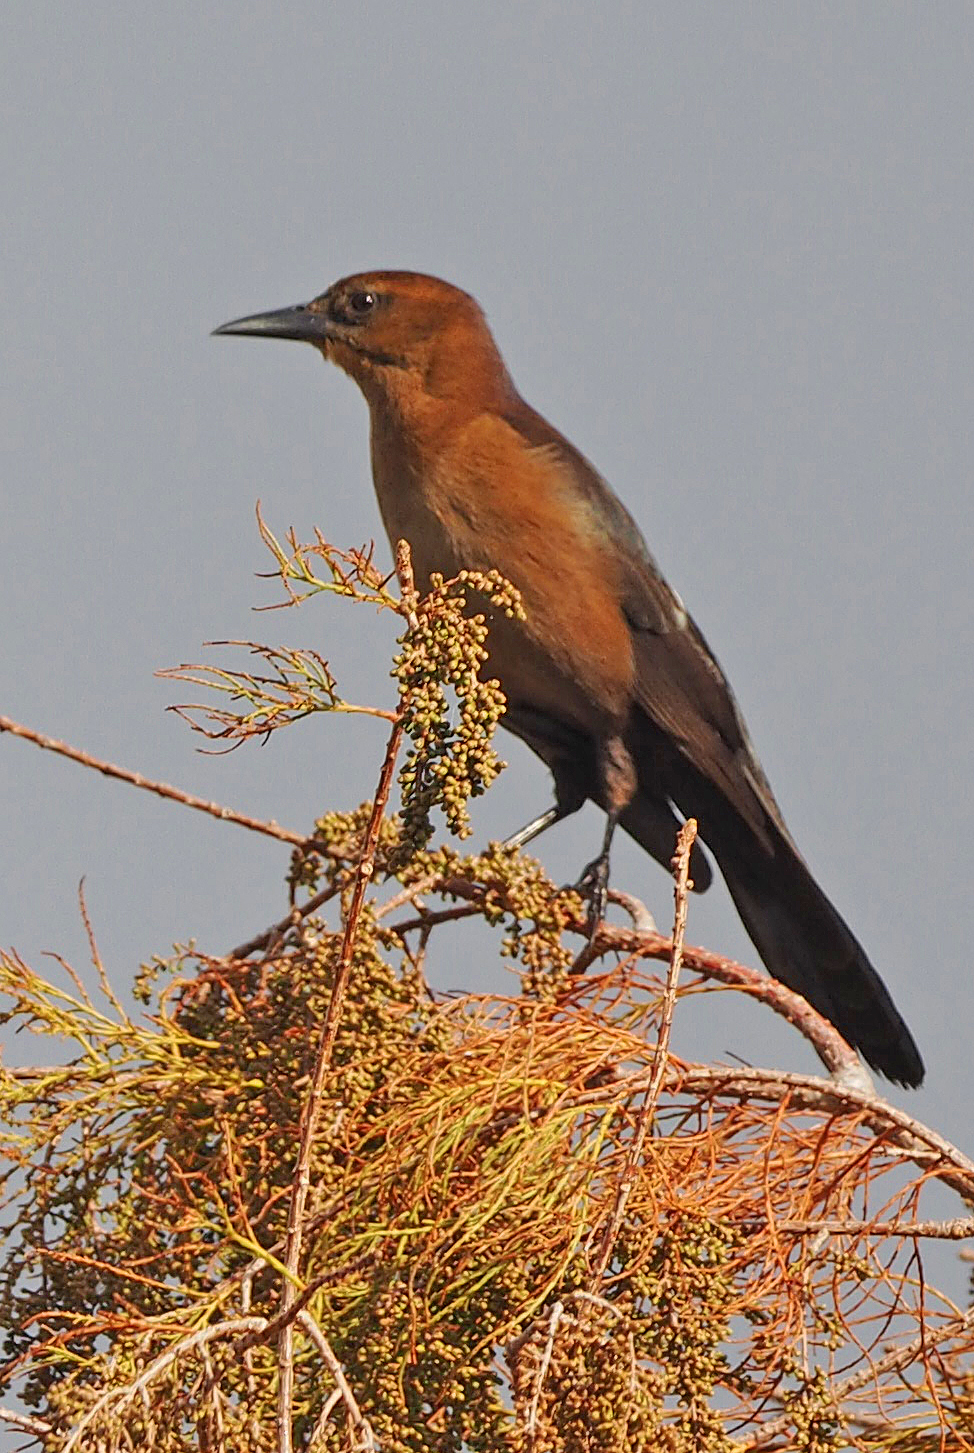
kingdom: Animalia
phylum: Chordata
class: Aves
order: Passeriformes
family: Icteridae
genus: Quiscalus
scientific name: Quiscalus major
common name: Boat-tailed grackle
